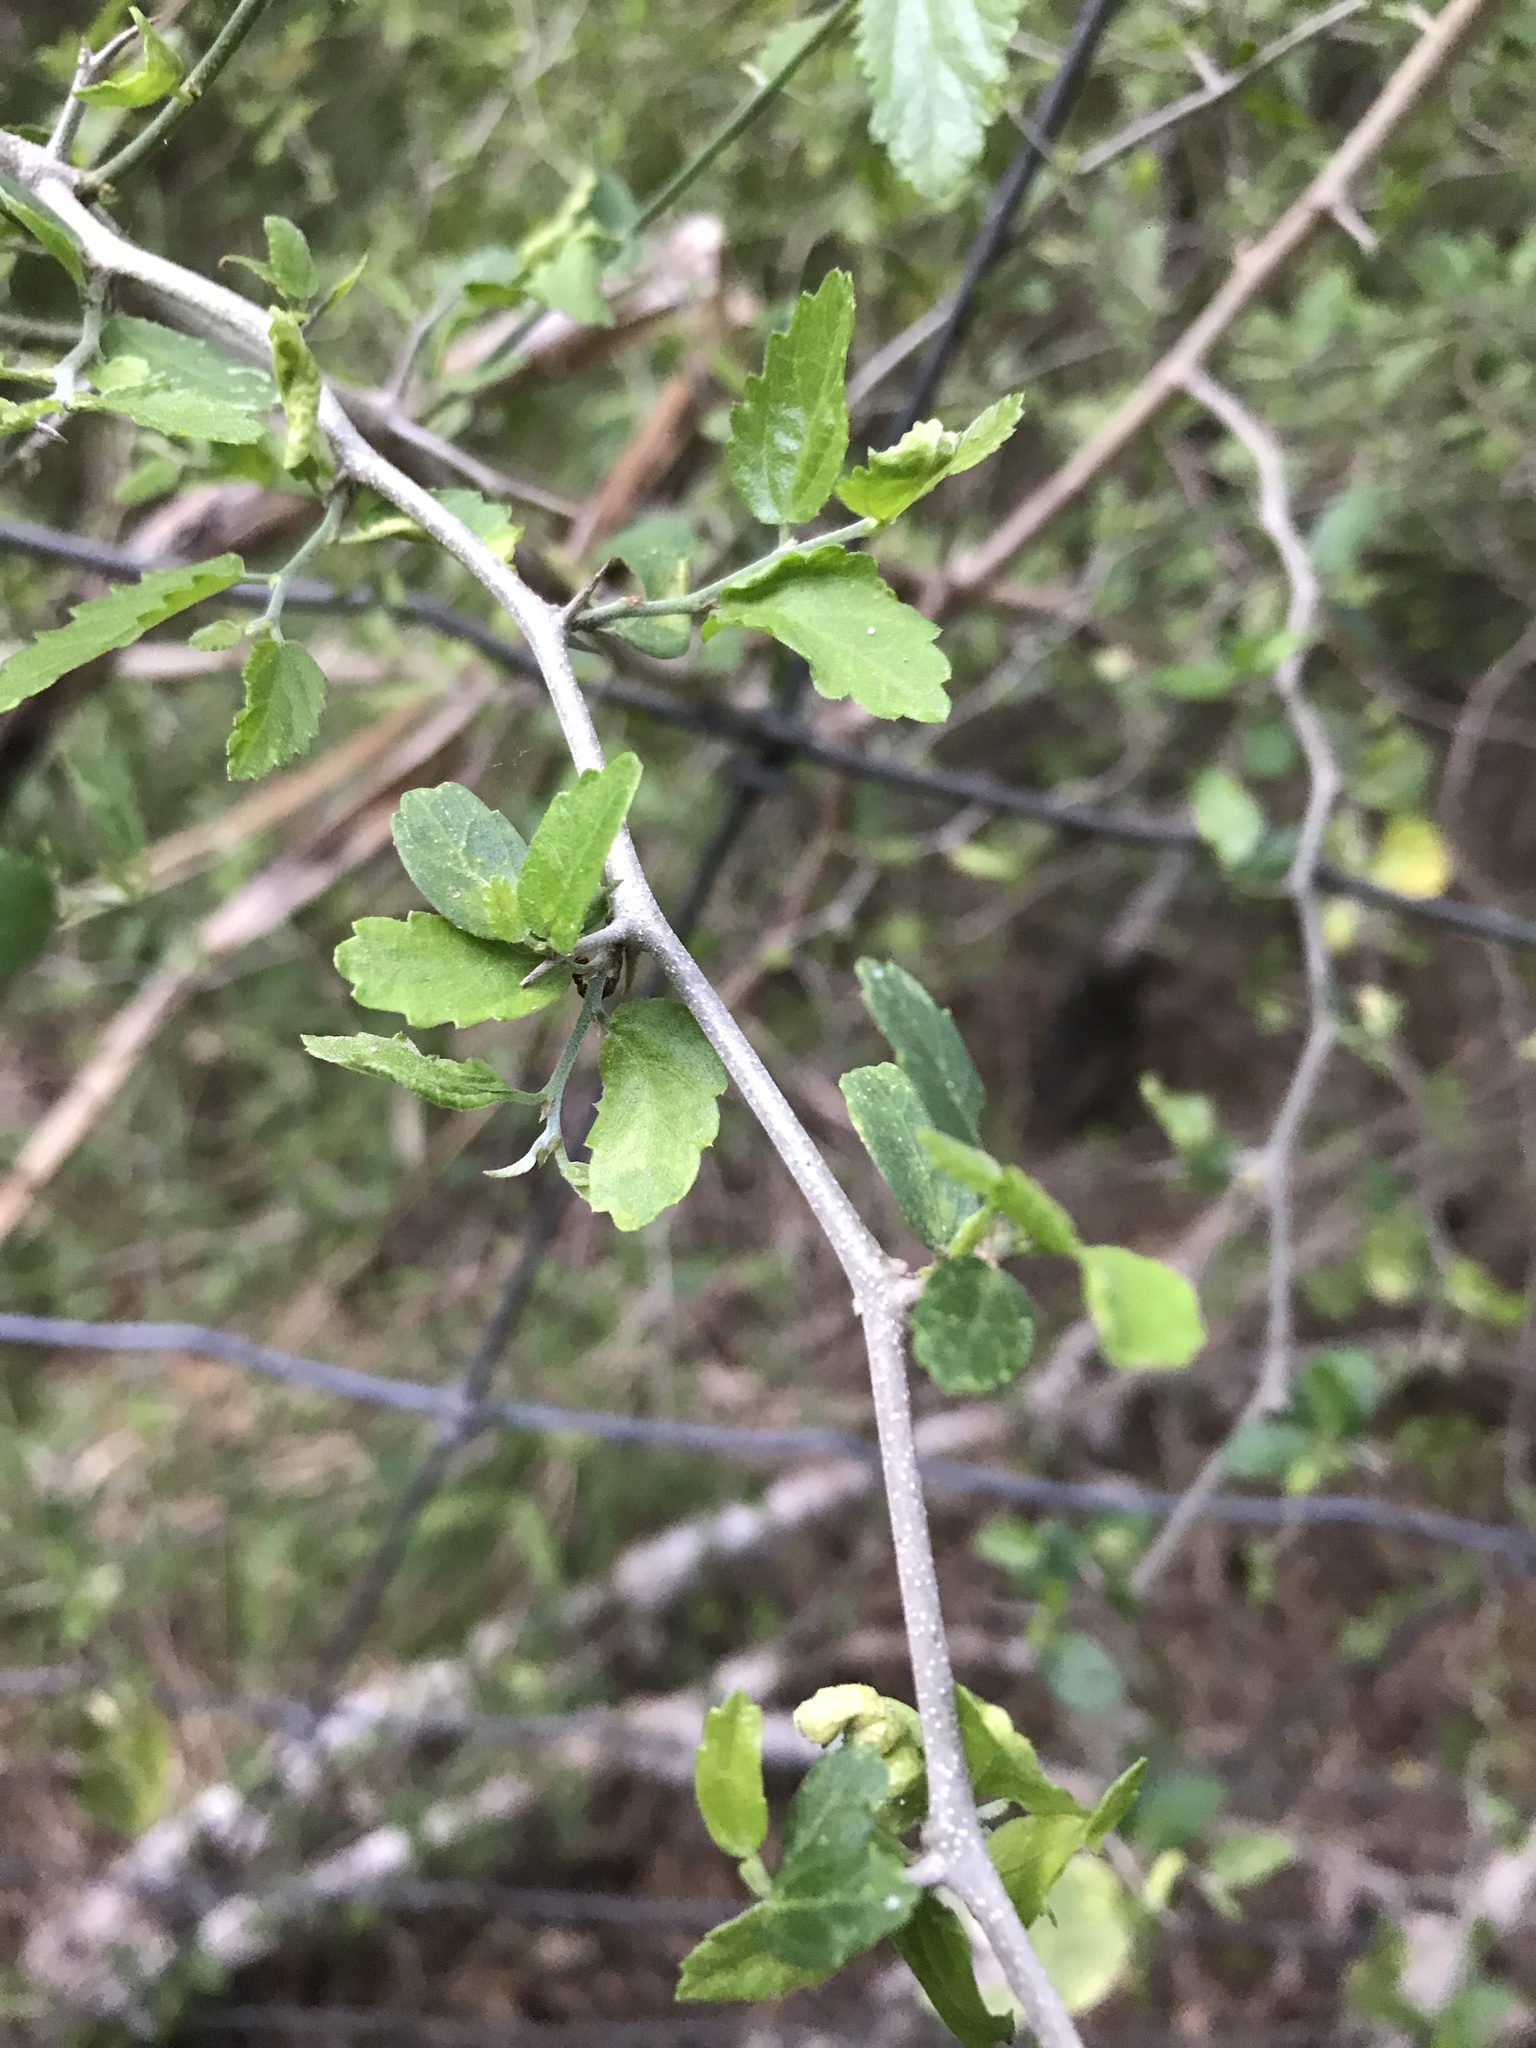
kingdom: Plantae
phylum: Tracheophyta
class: Magnoliopsida
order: Rosales
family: Cannabaceae
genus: Celtis
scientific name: Celtis pallida
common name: Desert hackberry
